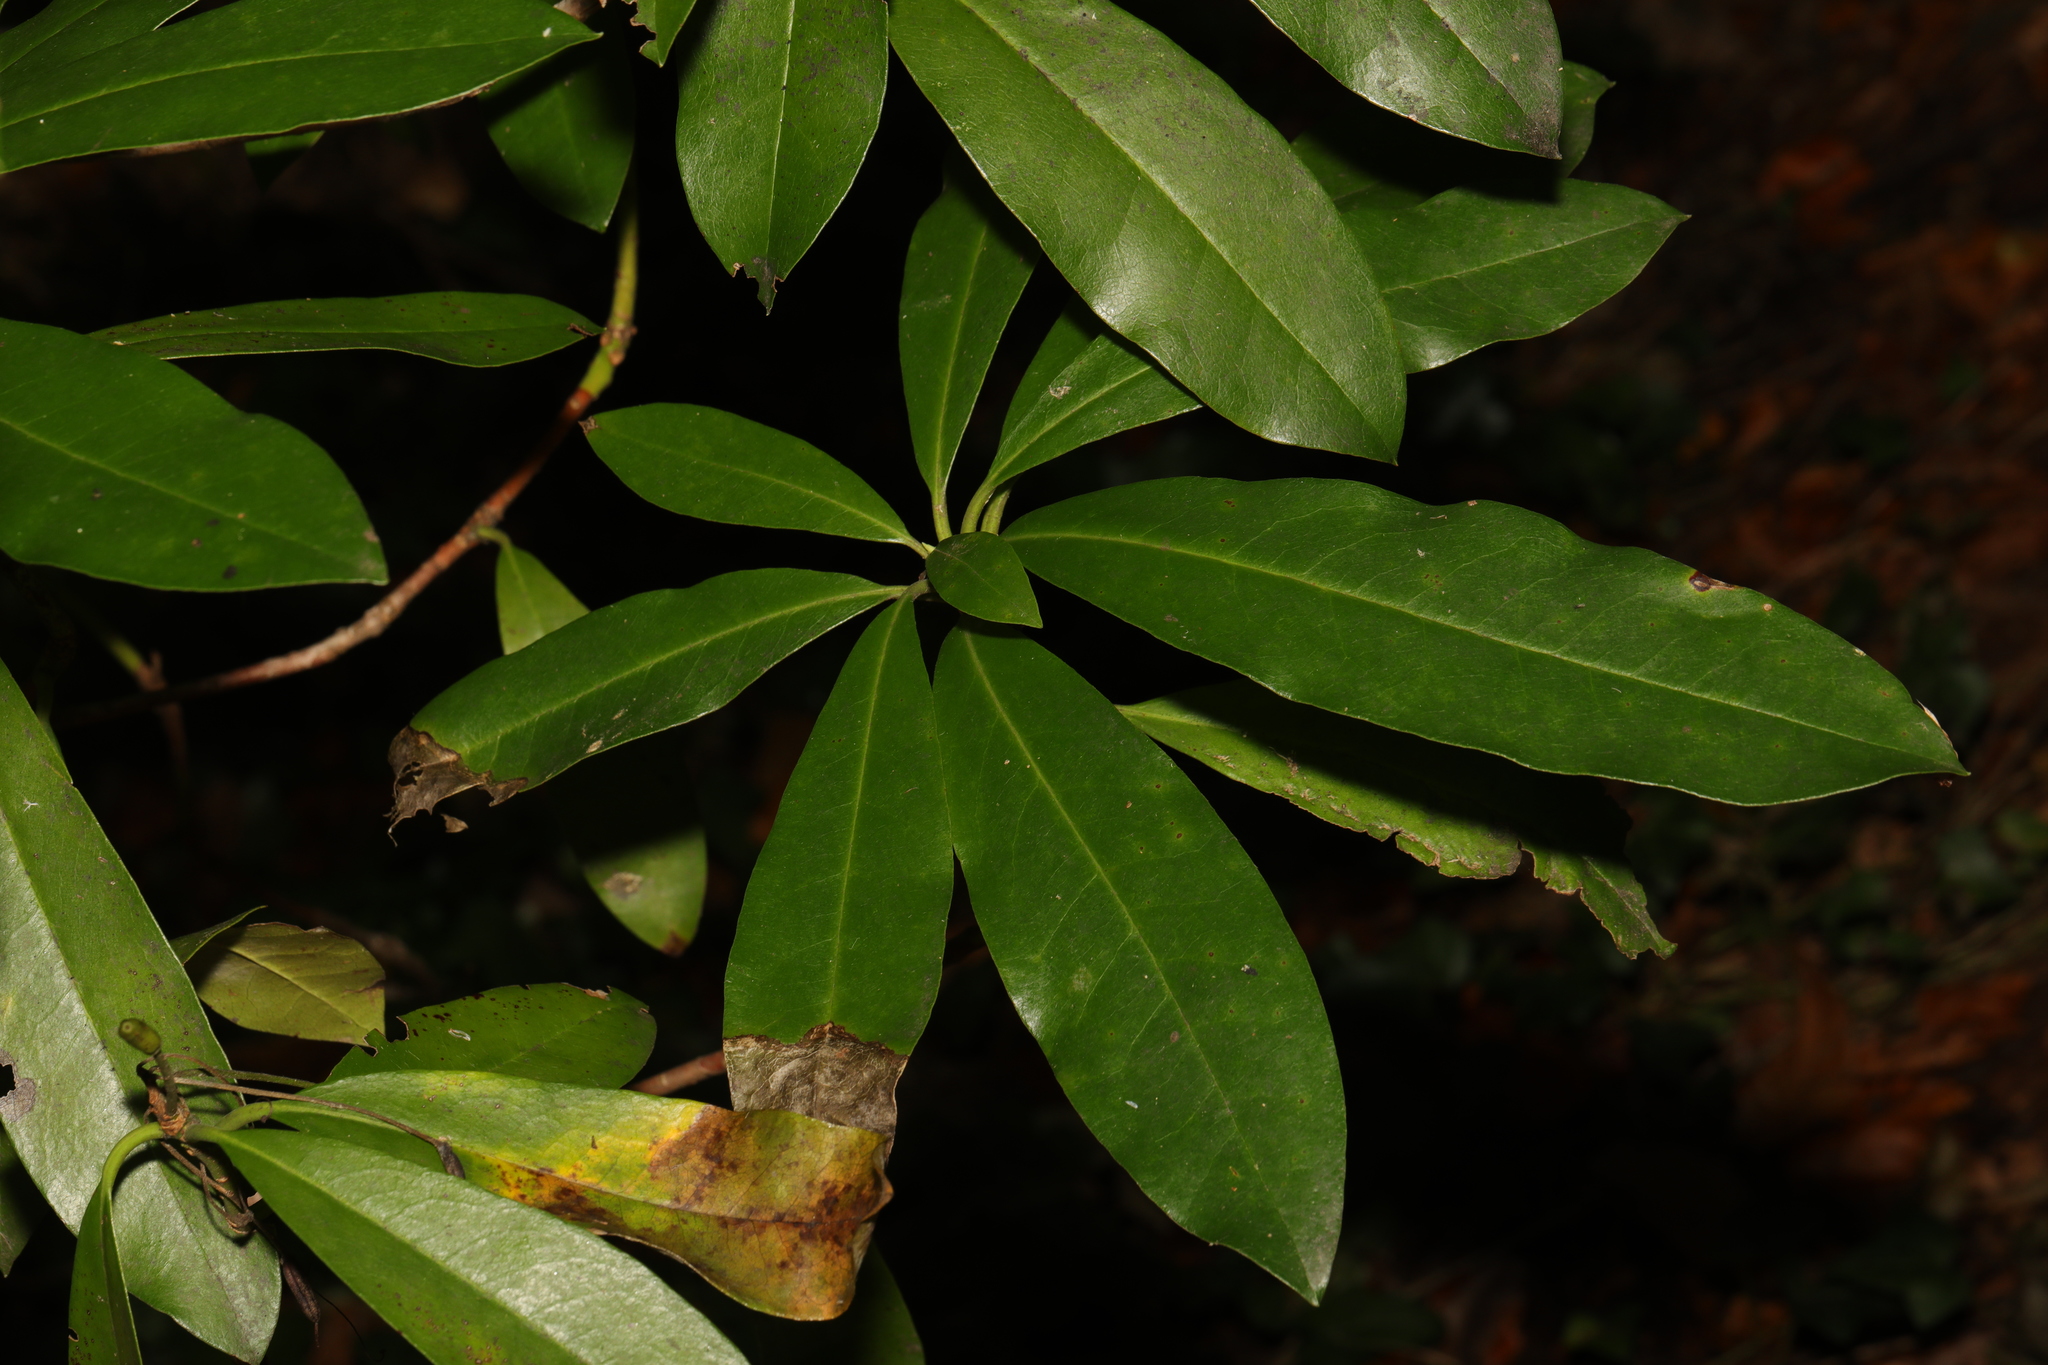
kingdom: Plantae
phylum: Tracheophyta
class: Magnoliopsida
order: Ericales
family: Ericaceae
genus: Rhododendron
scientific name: Rhododendron ponticum
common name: Rhododendron
